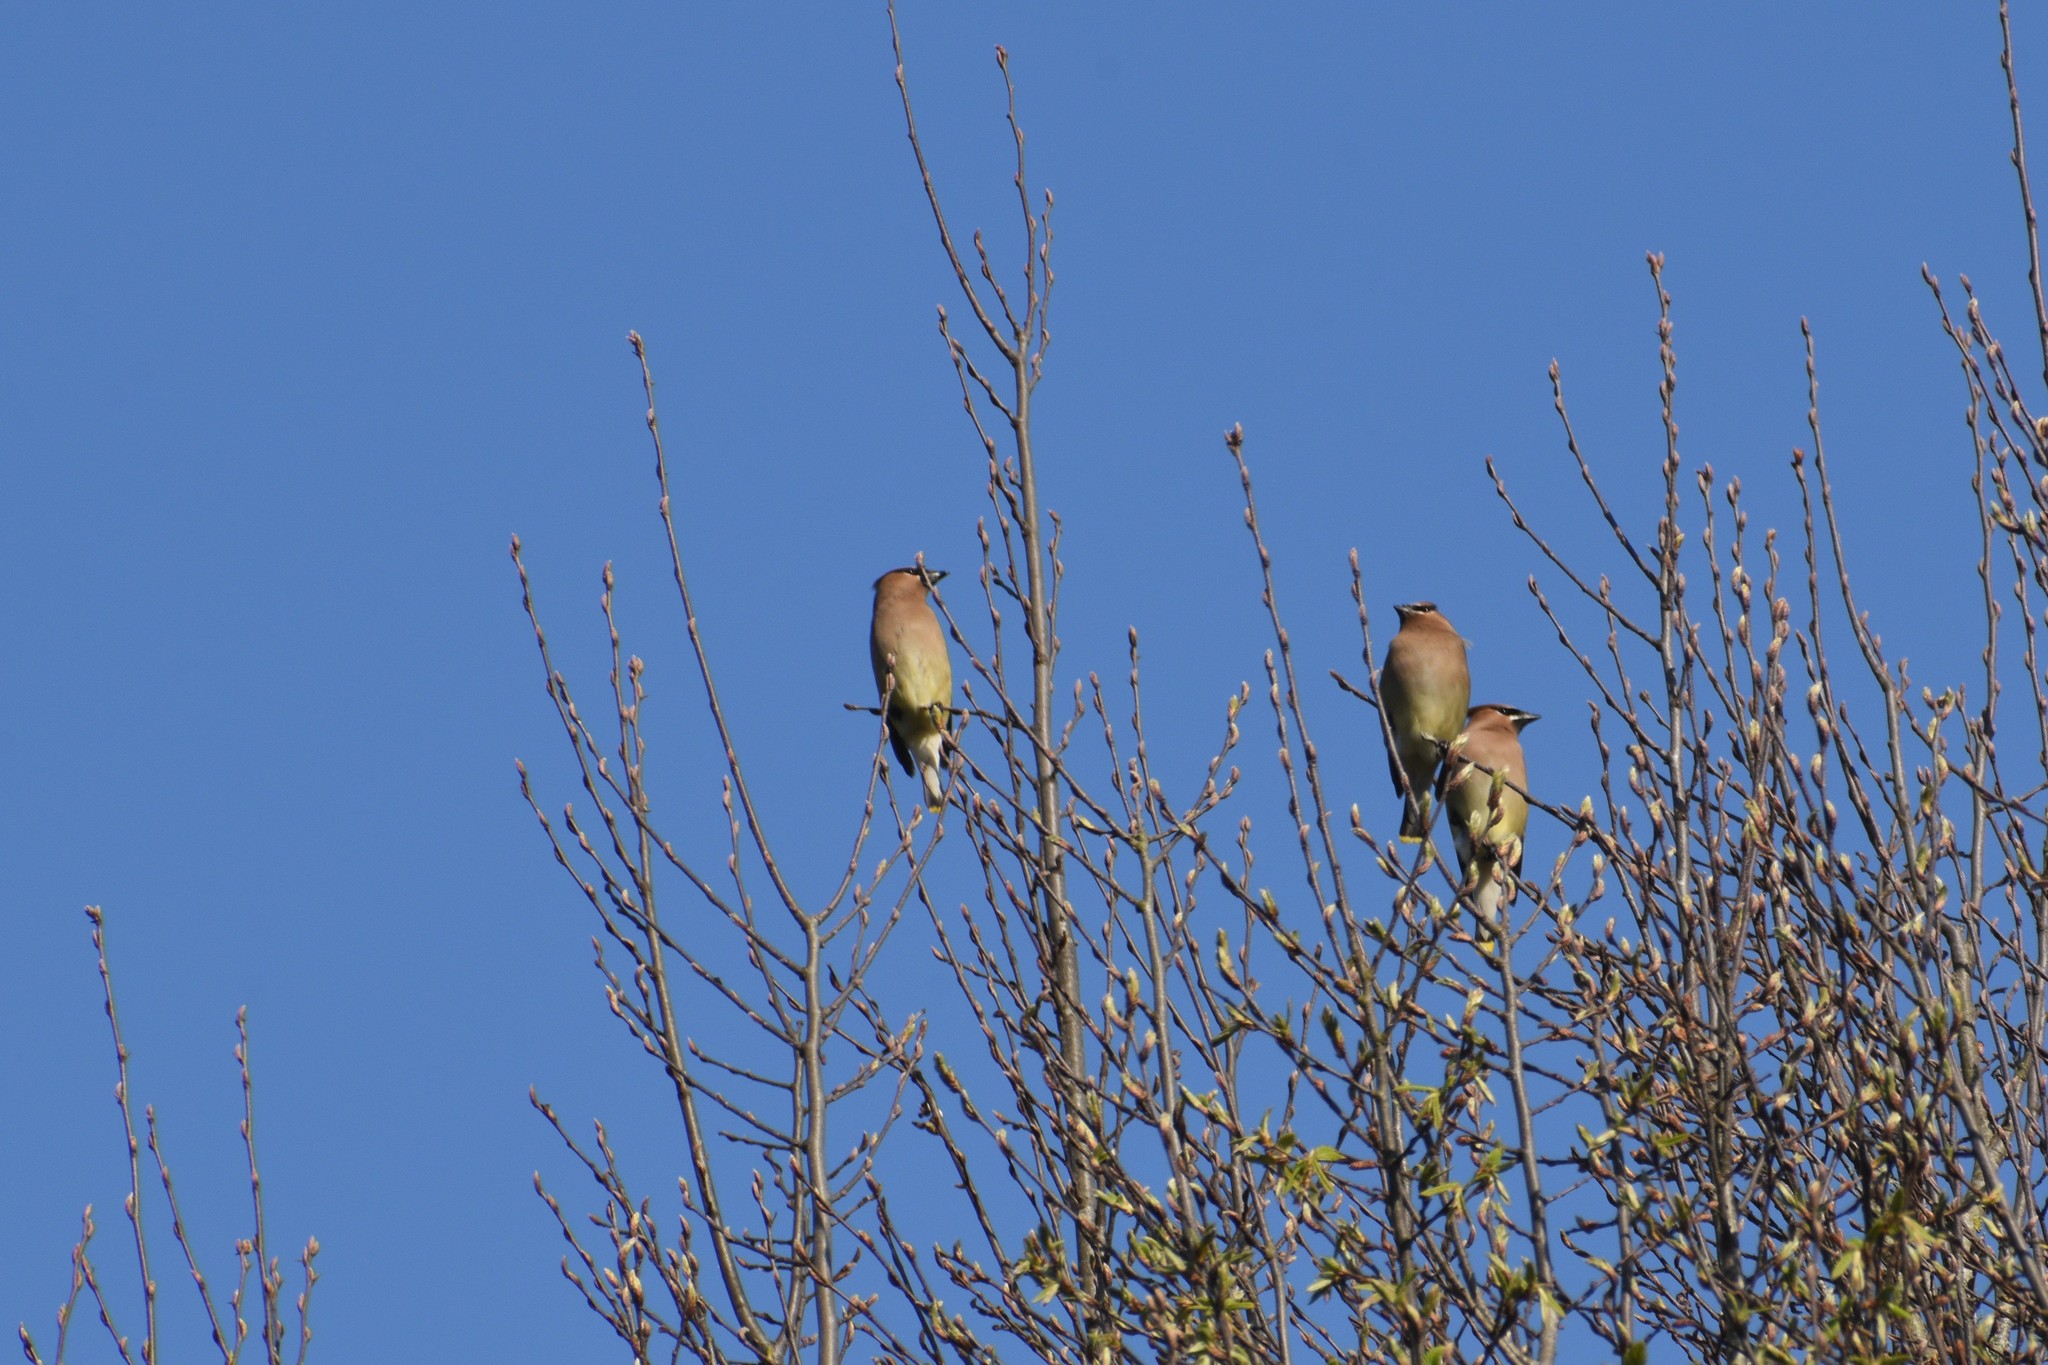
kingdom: Animalia
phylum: Chordata
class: Aves
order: Passeriformes
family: Bombycillidae
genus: Bombycilla
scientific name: Bombycilla cedrorum
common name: Cedar waxwing
